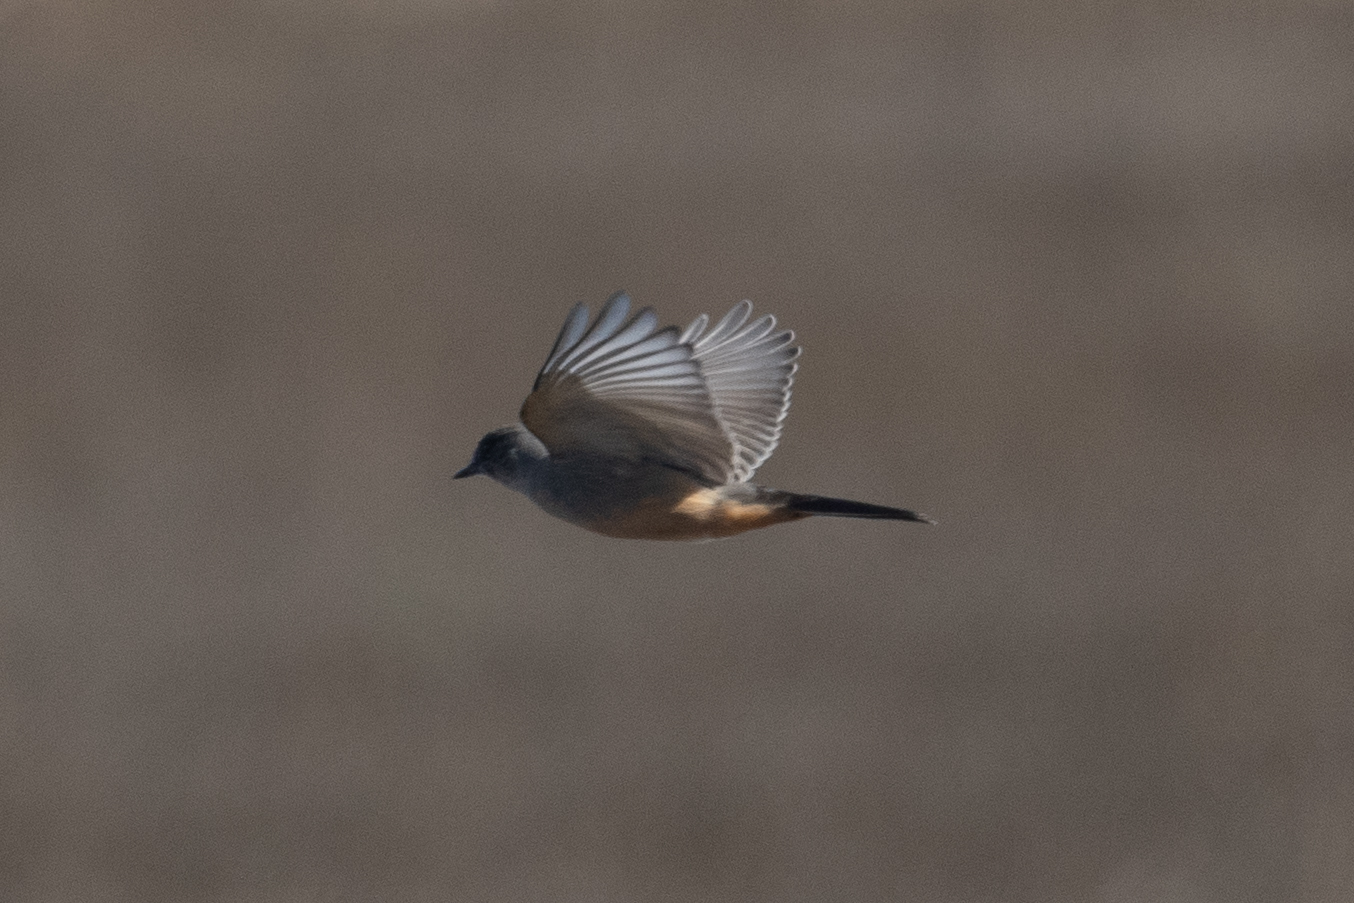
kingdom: Animalia
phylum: Chordata
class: Aves
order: Passeriformes
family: Tyrannidae
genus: Sayornis
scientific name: Sayornis saya
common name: Say's phoebe
